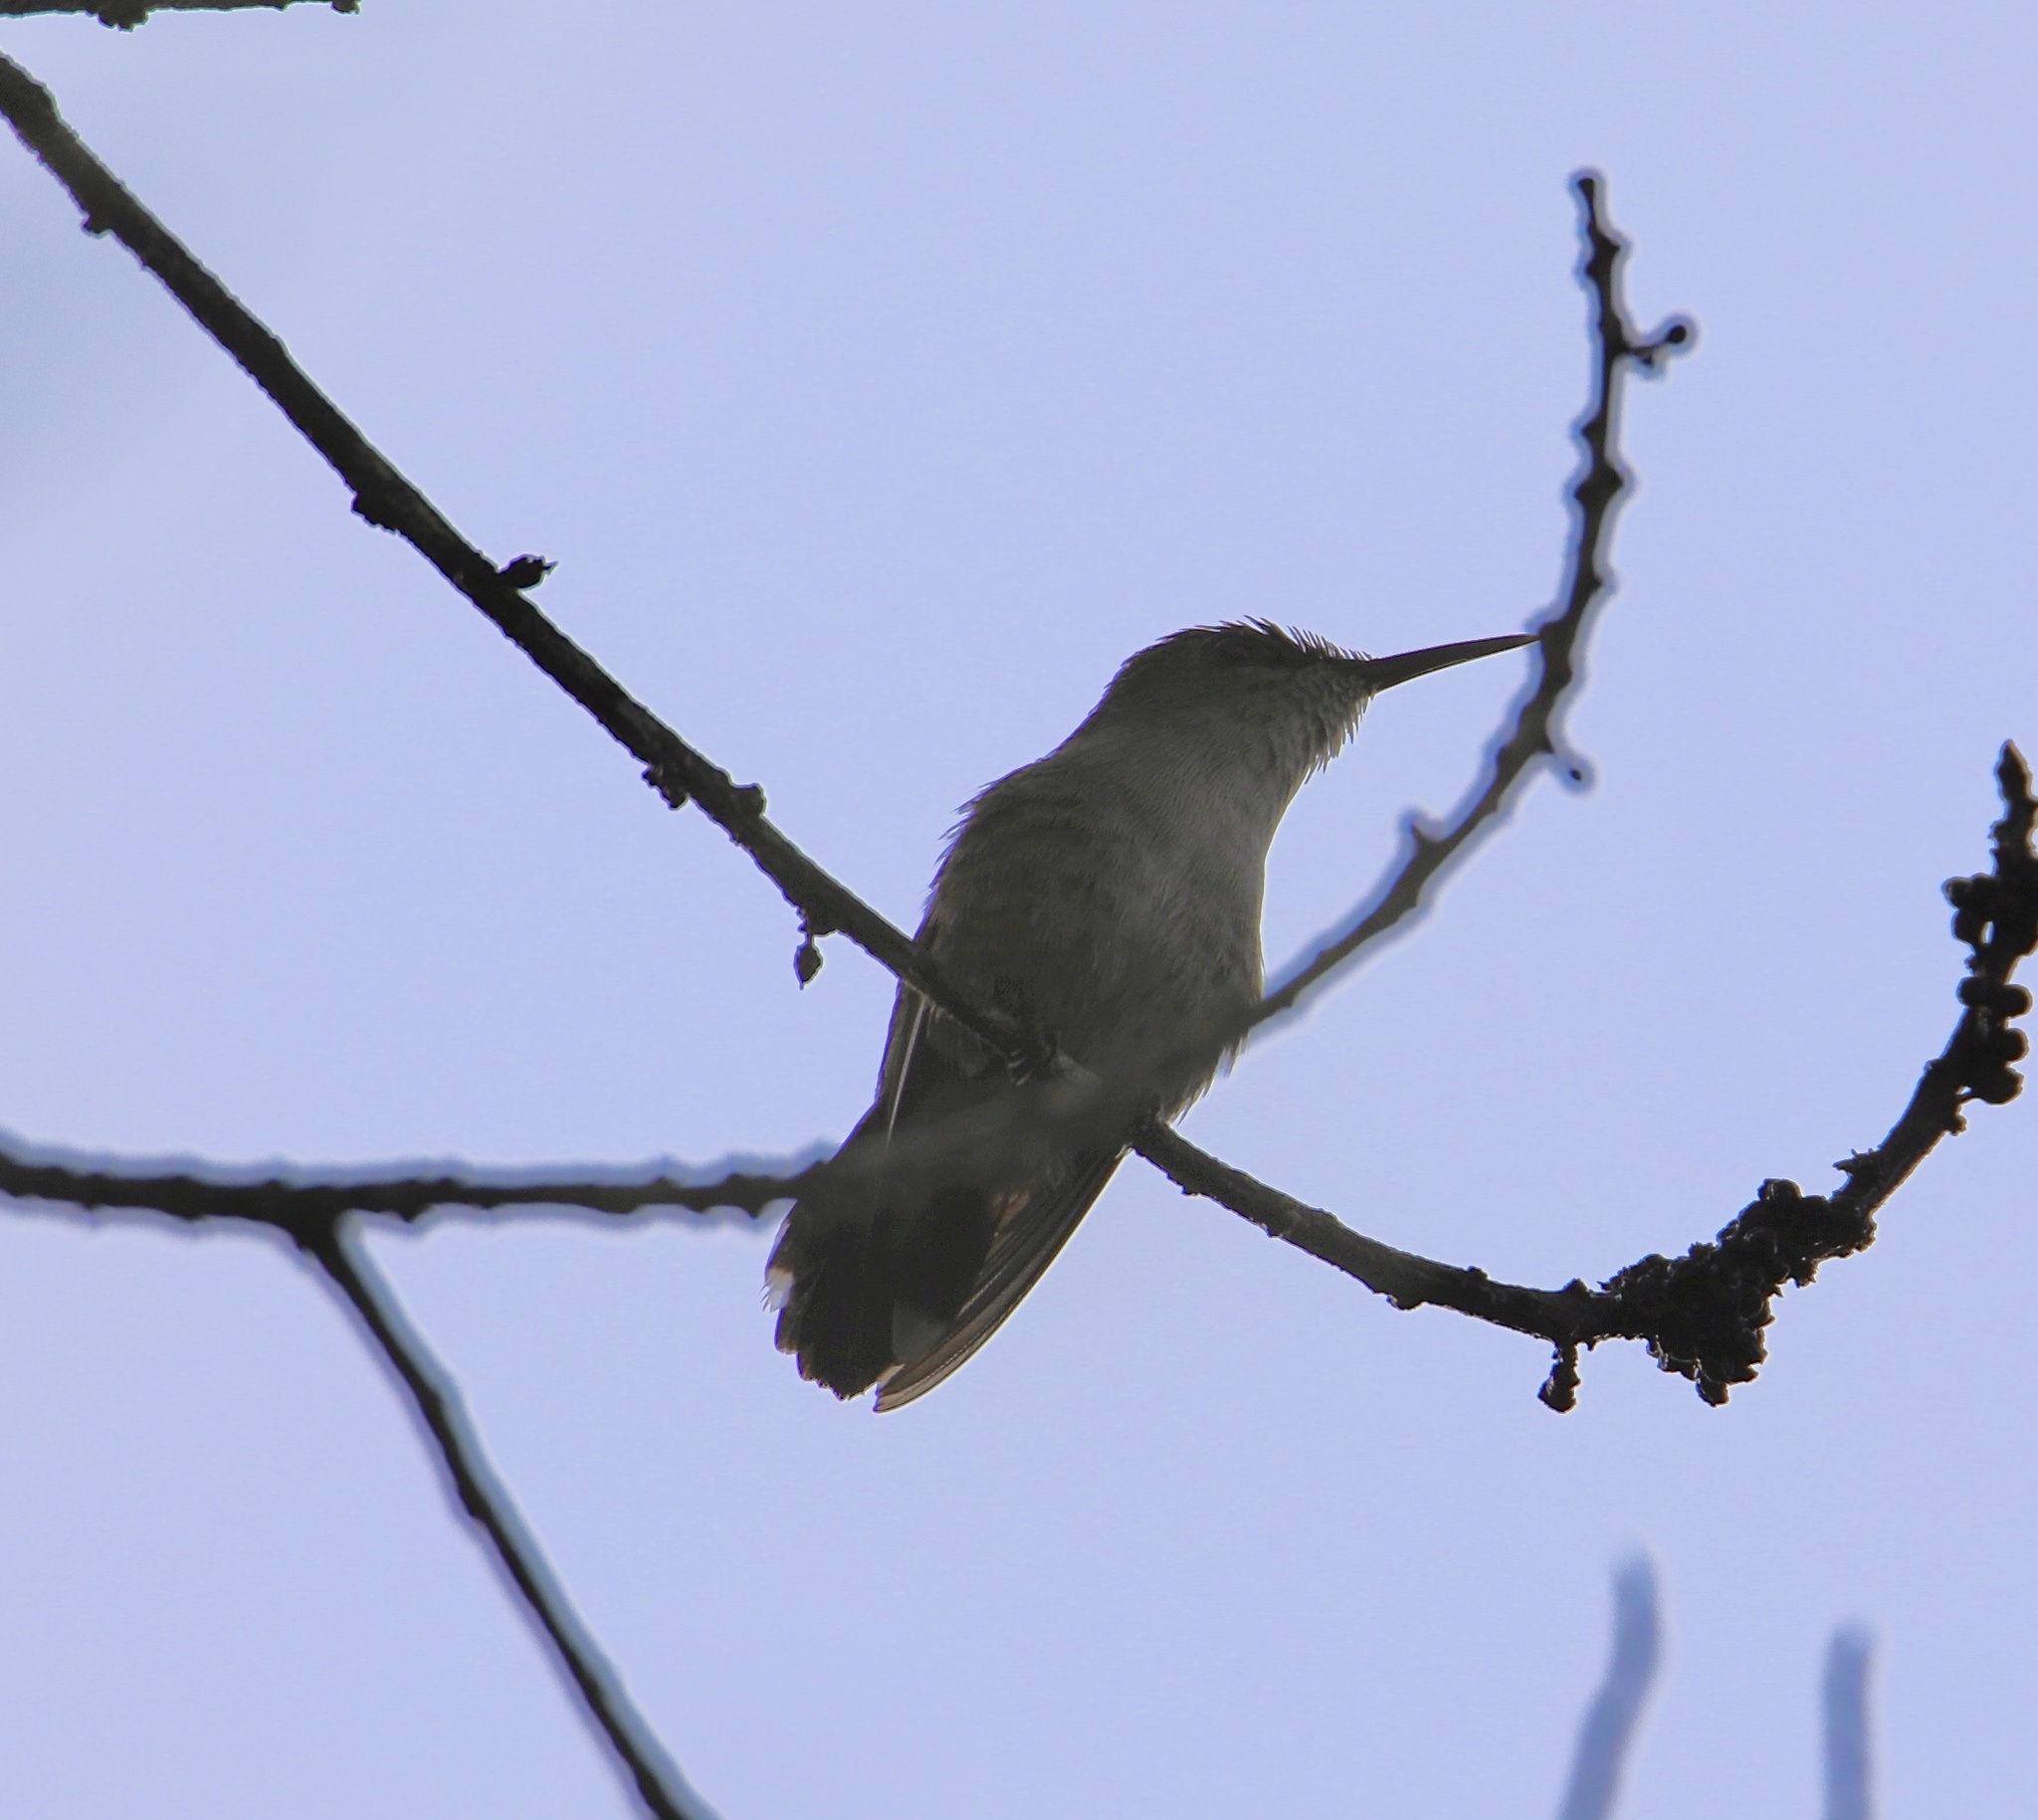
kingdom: Animalia
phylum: Chordata
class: Aves
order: Apodiformes
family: Trochilidae
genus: Mellisuga
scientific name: Mellisuga minima
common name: Vervain hummingbird
